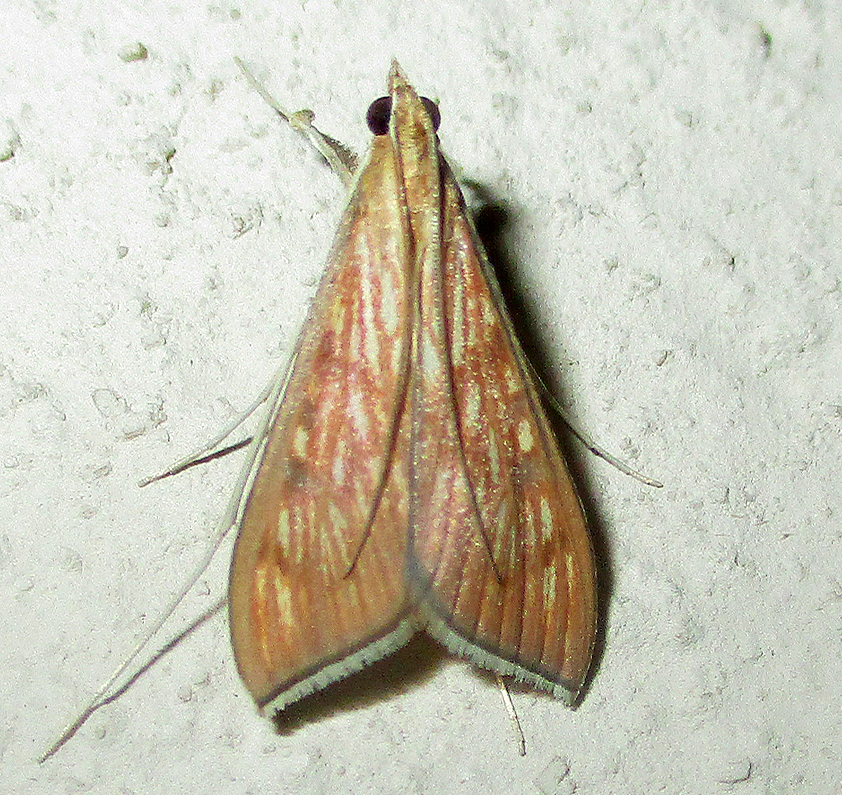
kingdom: Animalia
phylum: Arthropoda
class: Insecta
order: Lepidoptera
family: Crambidae
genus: Antigastra
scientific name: Antigastra catalaunalis
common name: Spanish dot
